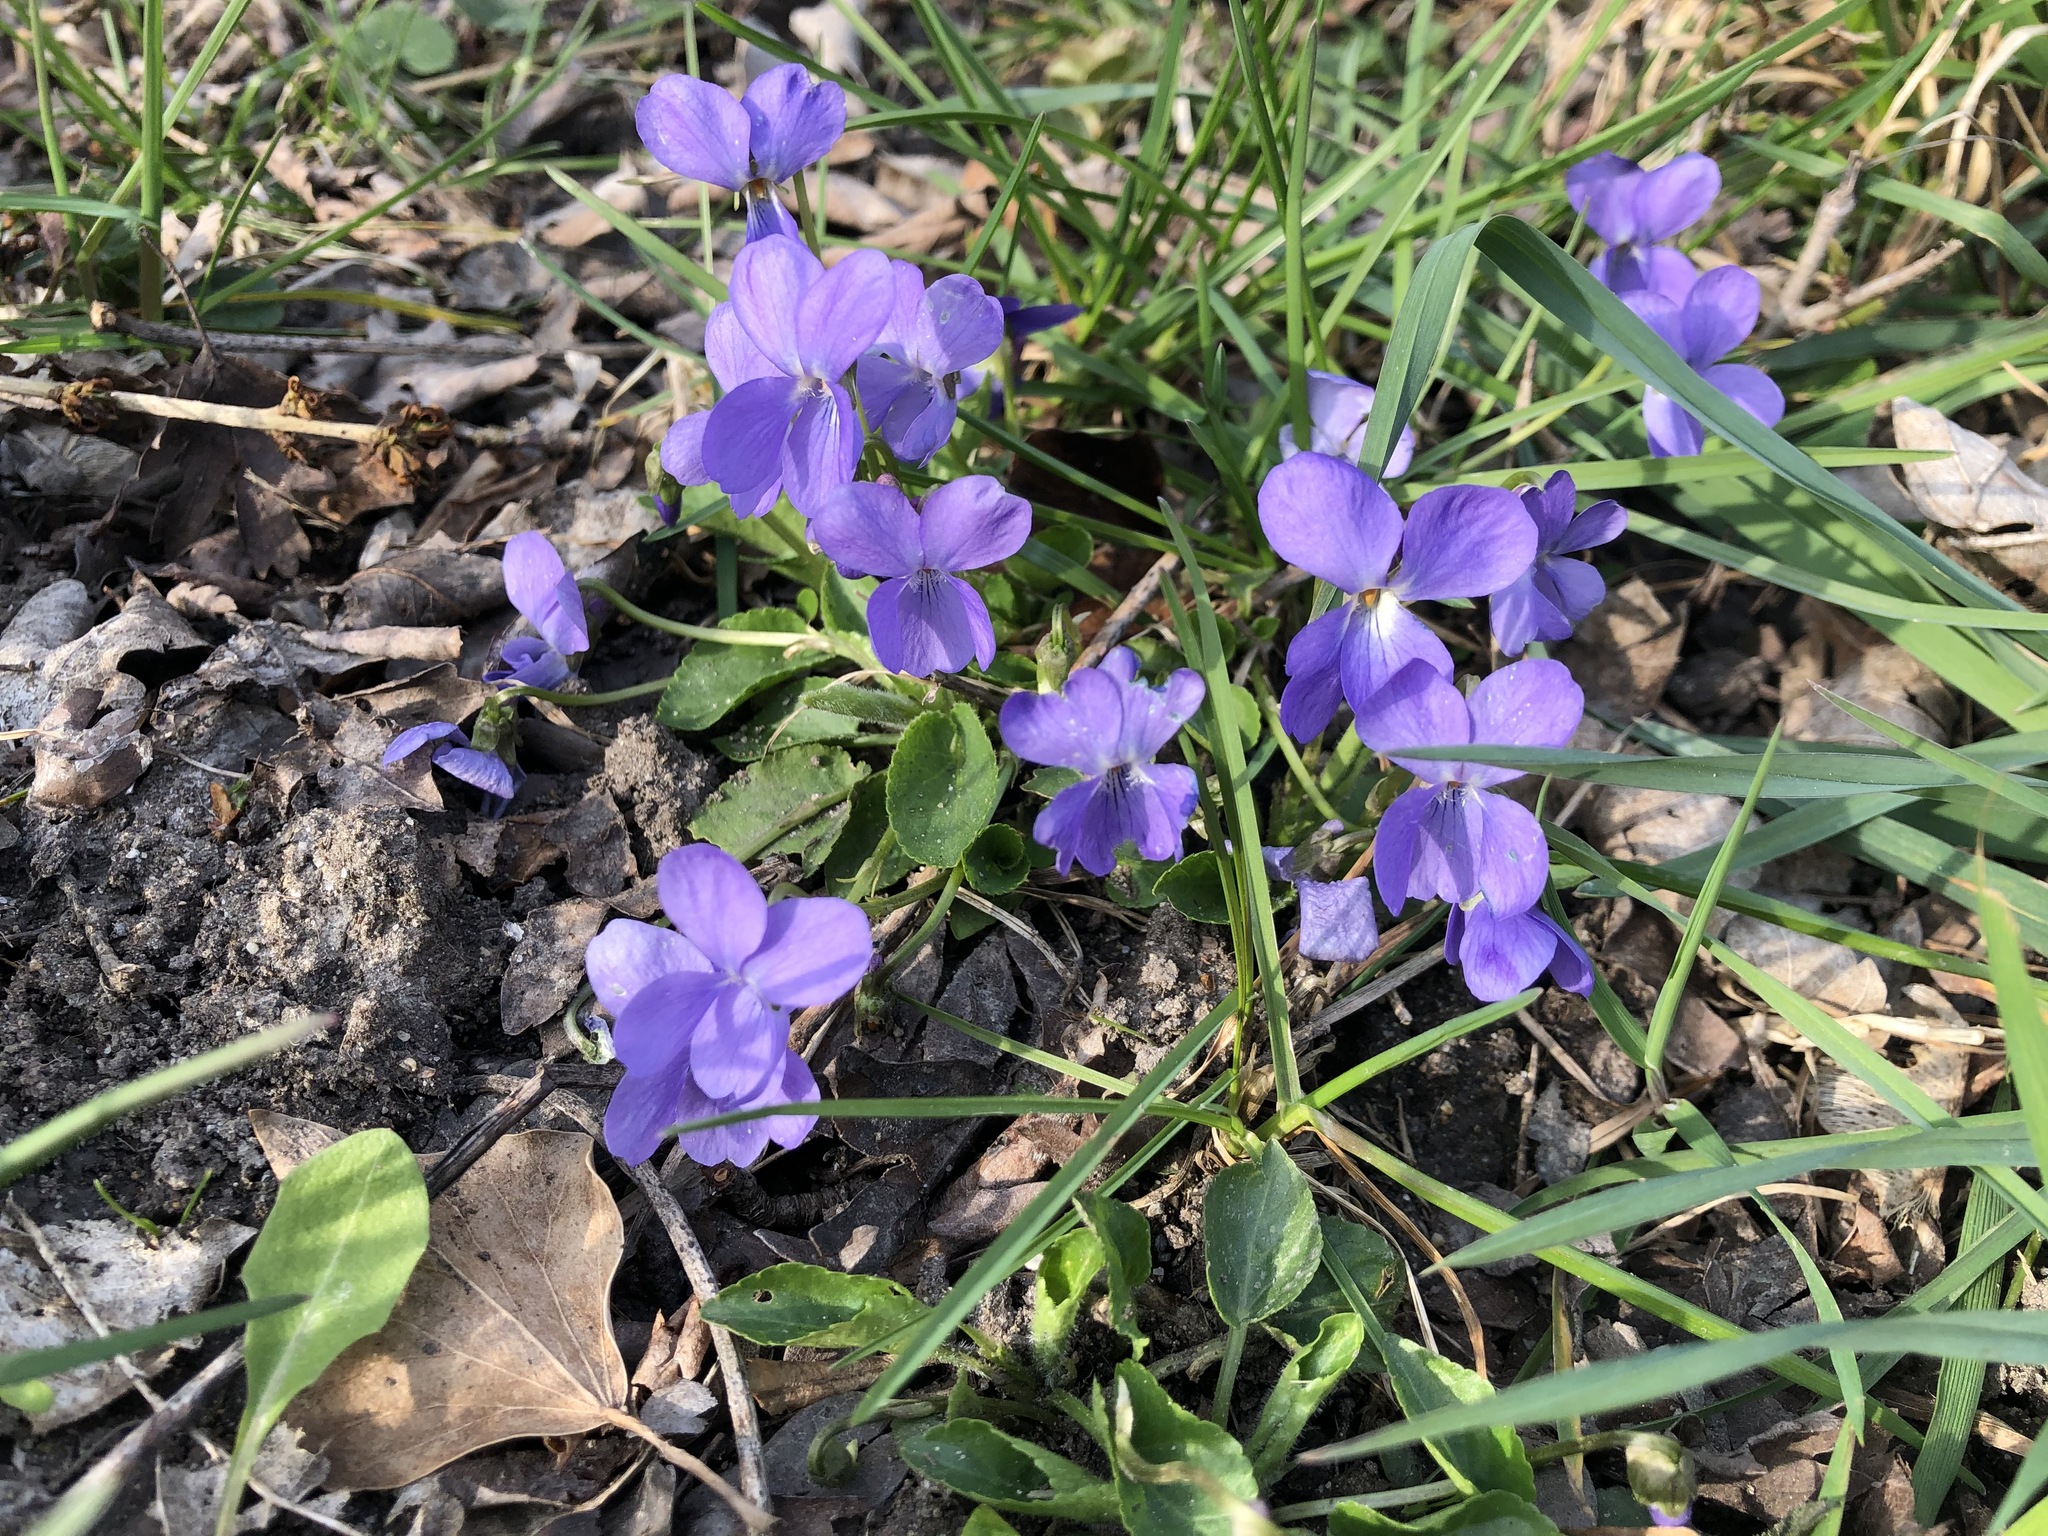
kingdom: Plantae
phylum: Tracheophyta
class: Magnoliopsida
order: Malpighiales
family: Violaceae
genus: Viola
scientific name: Viola reichenbachiana
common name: Early dog-violet
